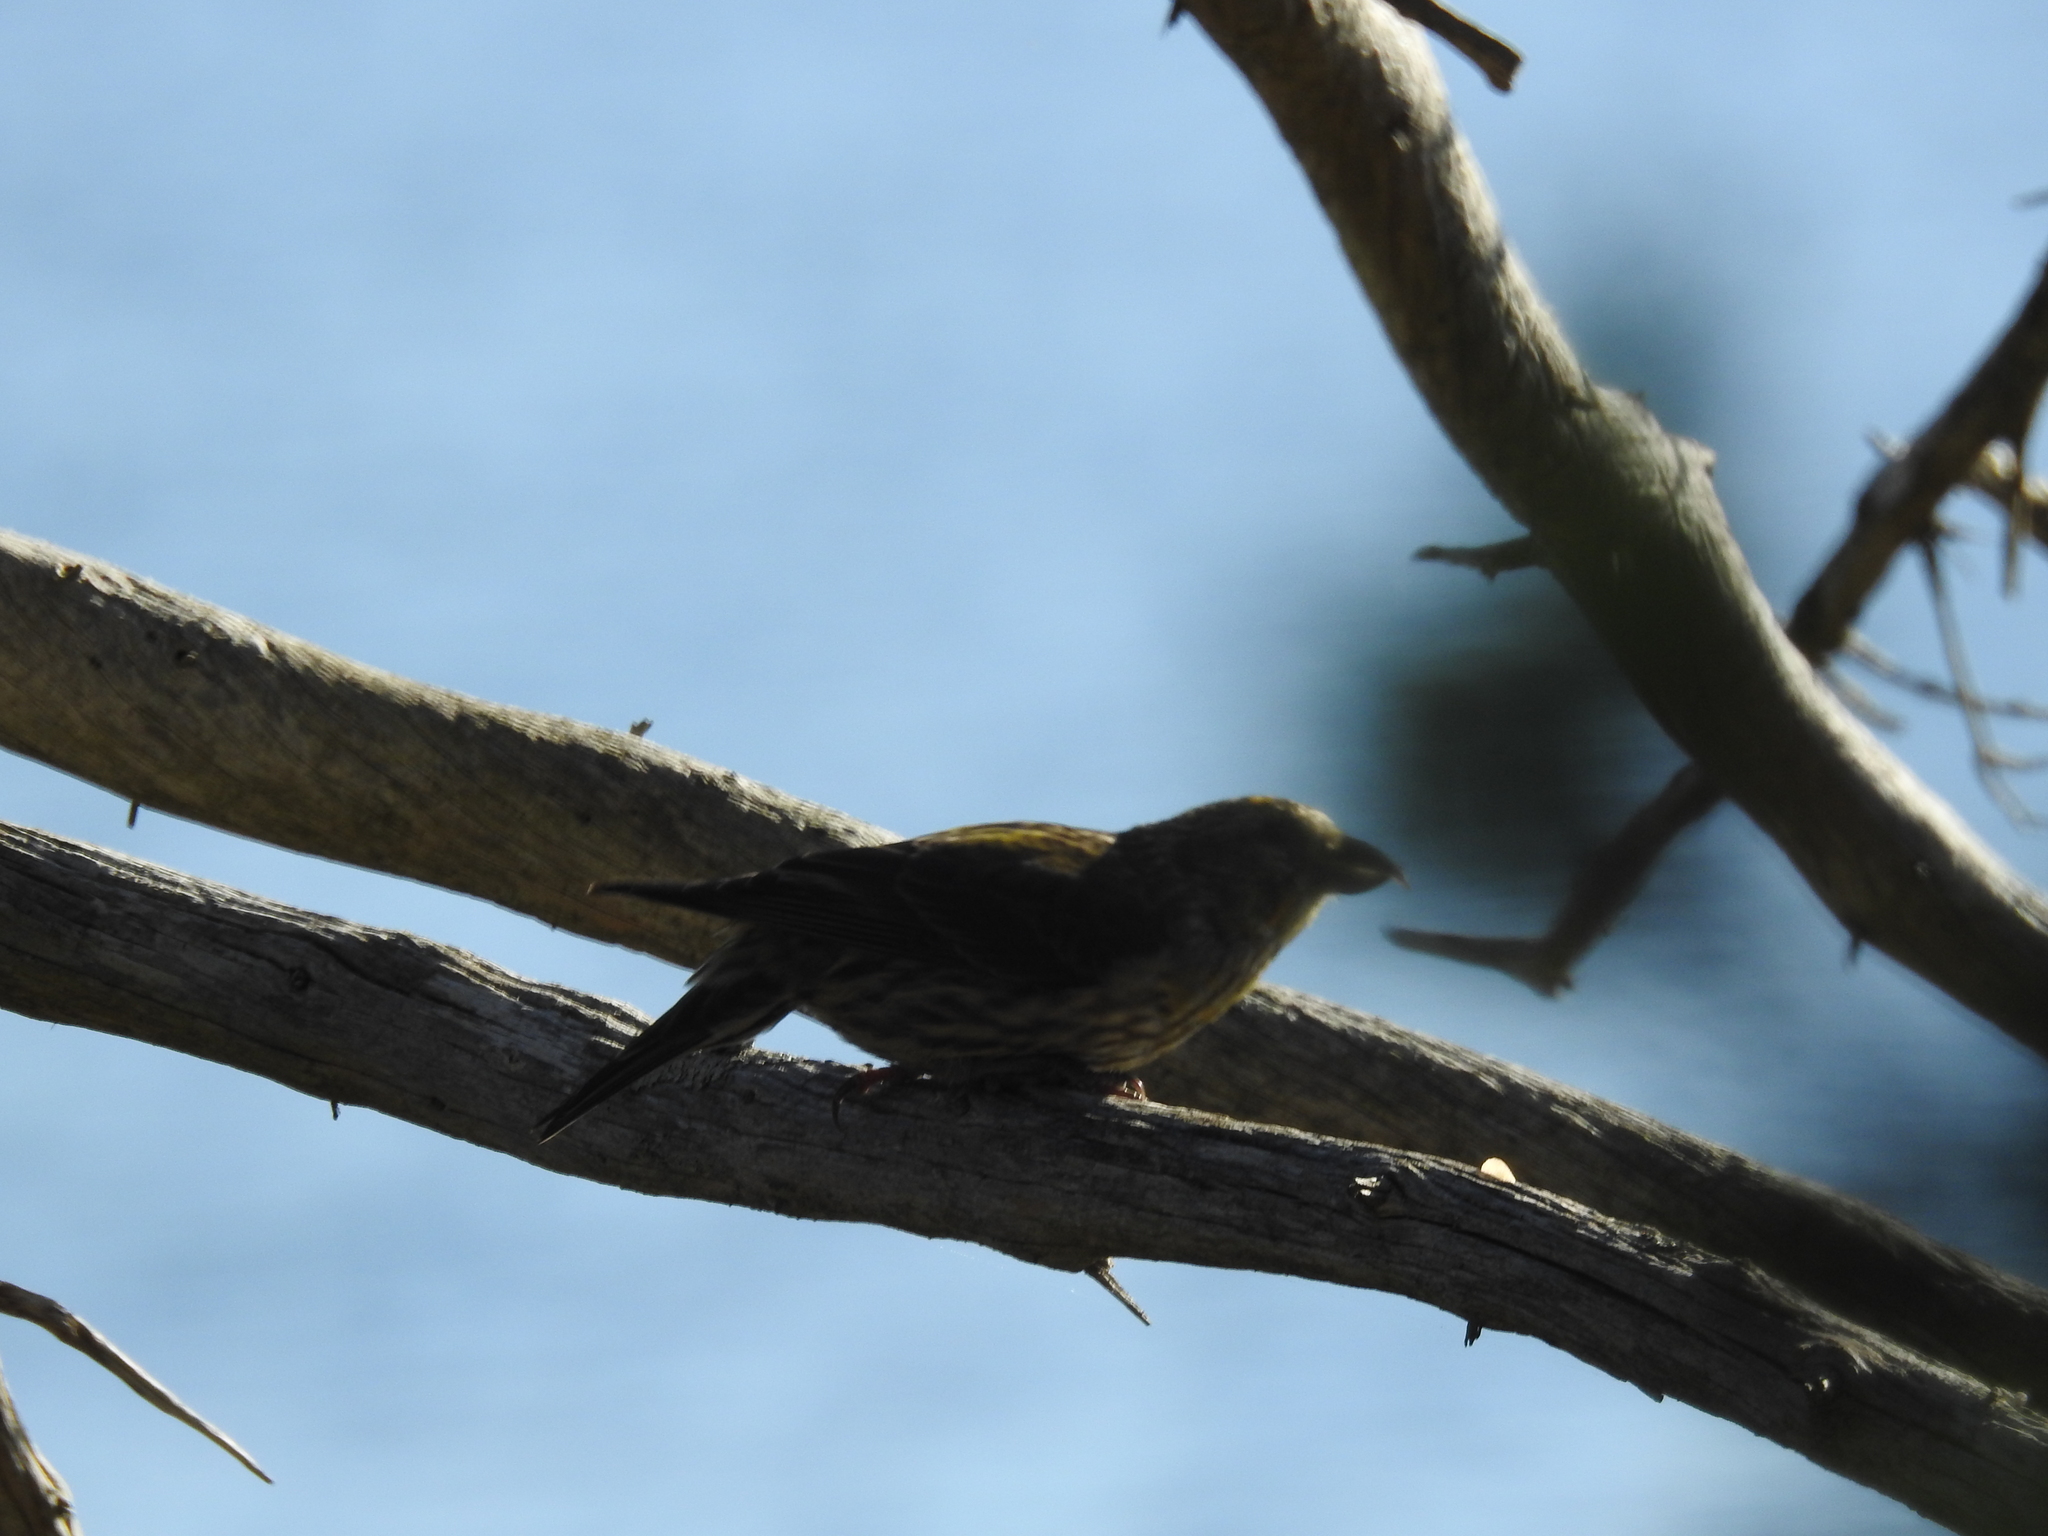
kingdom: Animalia
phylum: Chordata
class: Aves
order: Passeriformes
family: Fringillidae
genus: Loxia
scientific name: Loxia curvirostra
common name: Red crossbill
